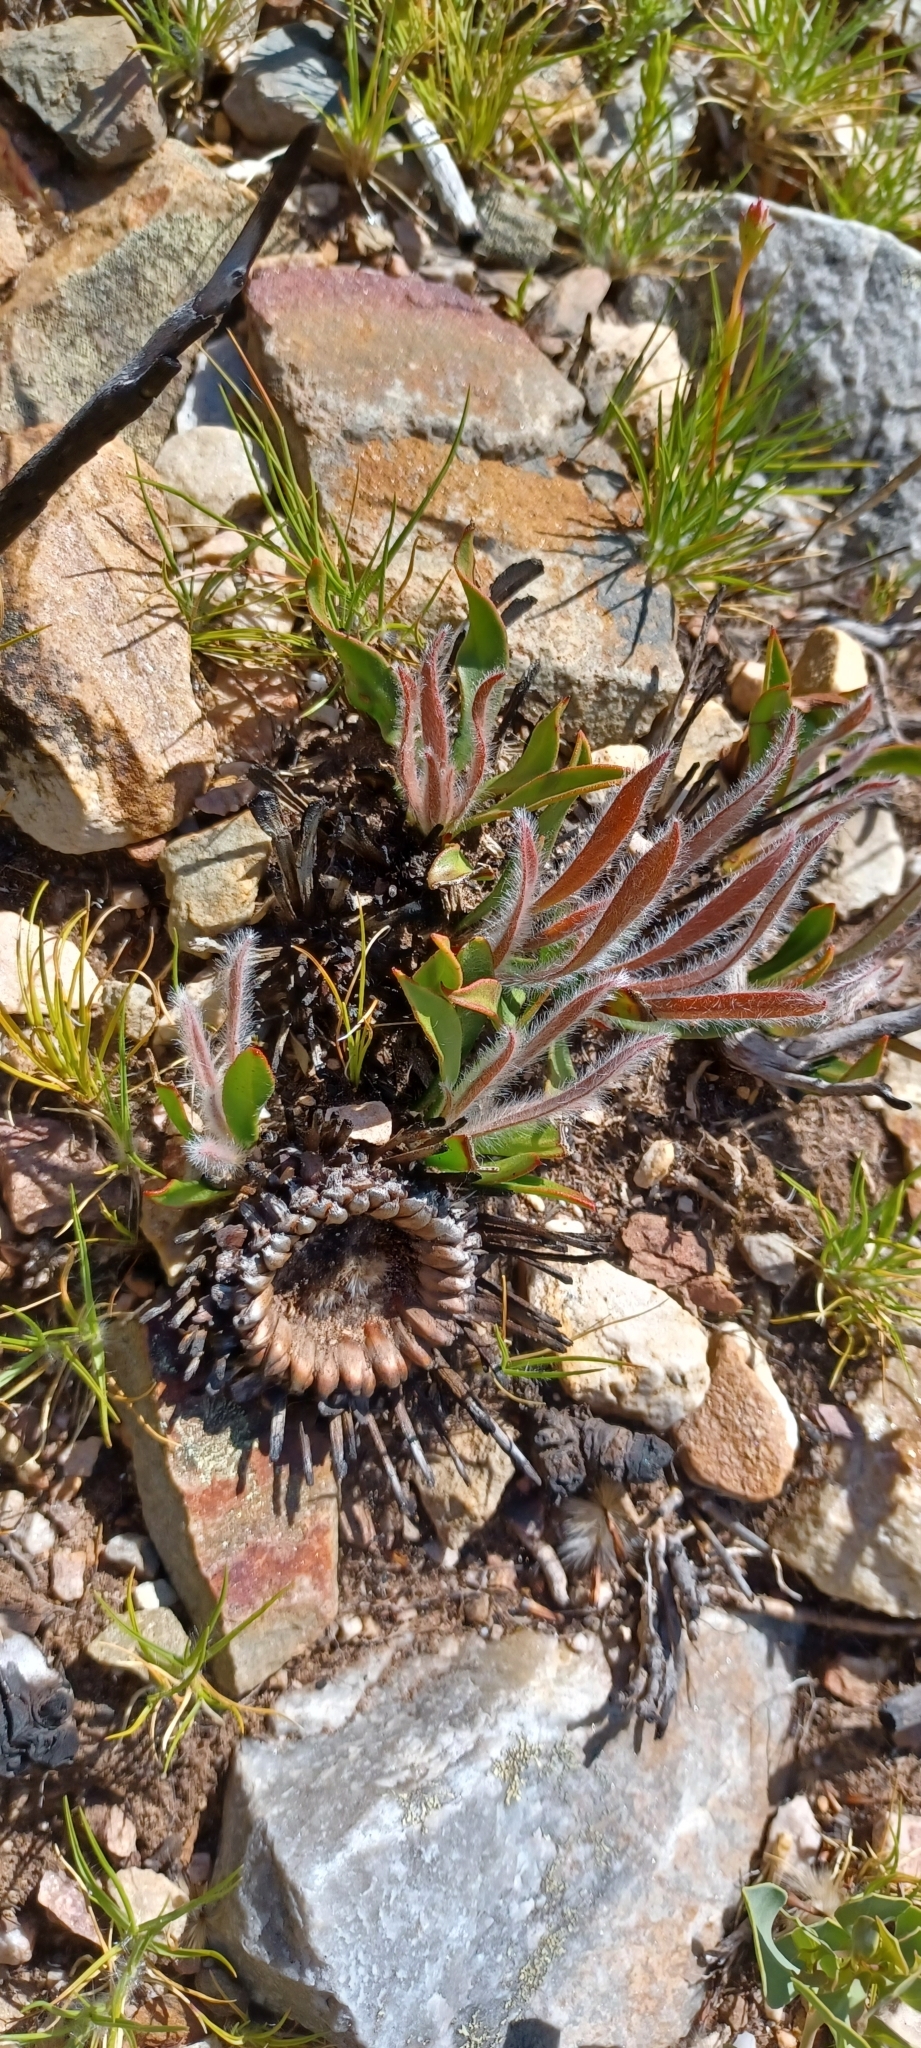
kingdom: Plantae
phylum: Tracheophyta
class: Magnoliopsida
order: Proteales
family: Proteaceae
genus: Protea
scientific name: Protea scolopendriifolia
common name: Harts-tongue-fern sugarbush
